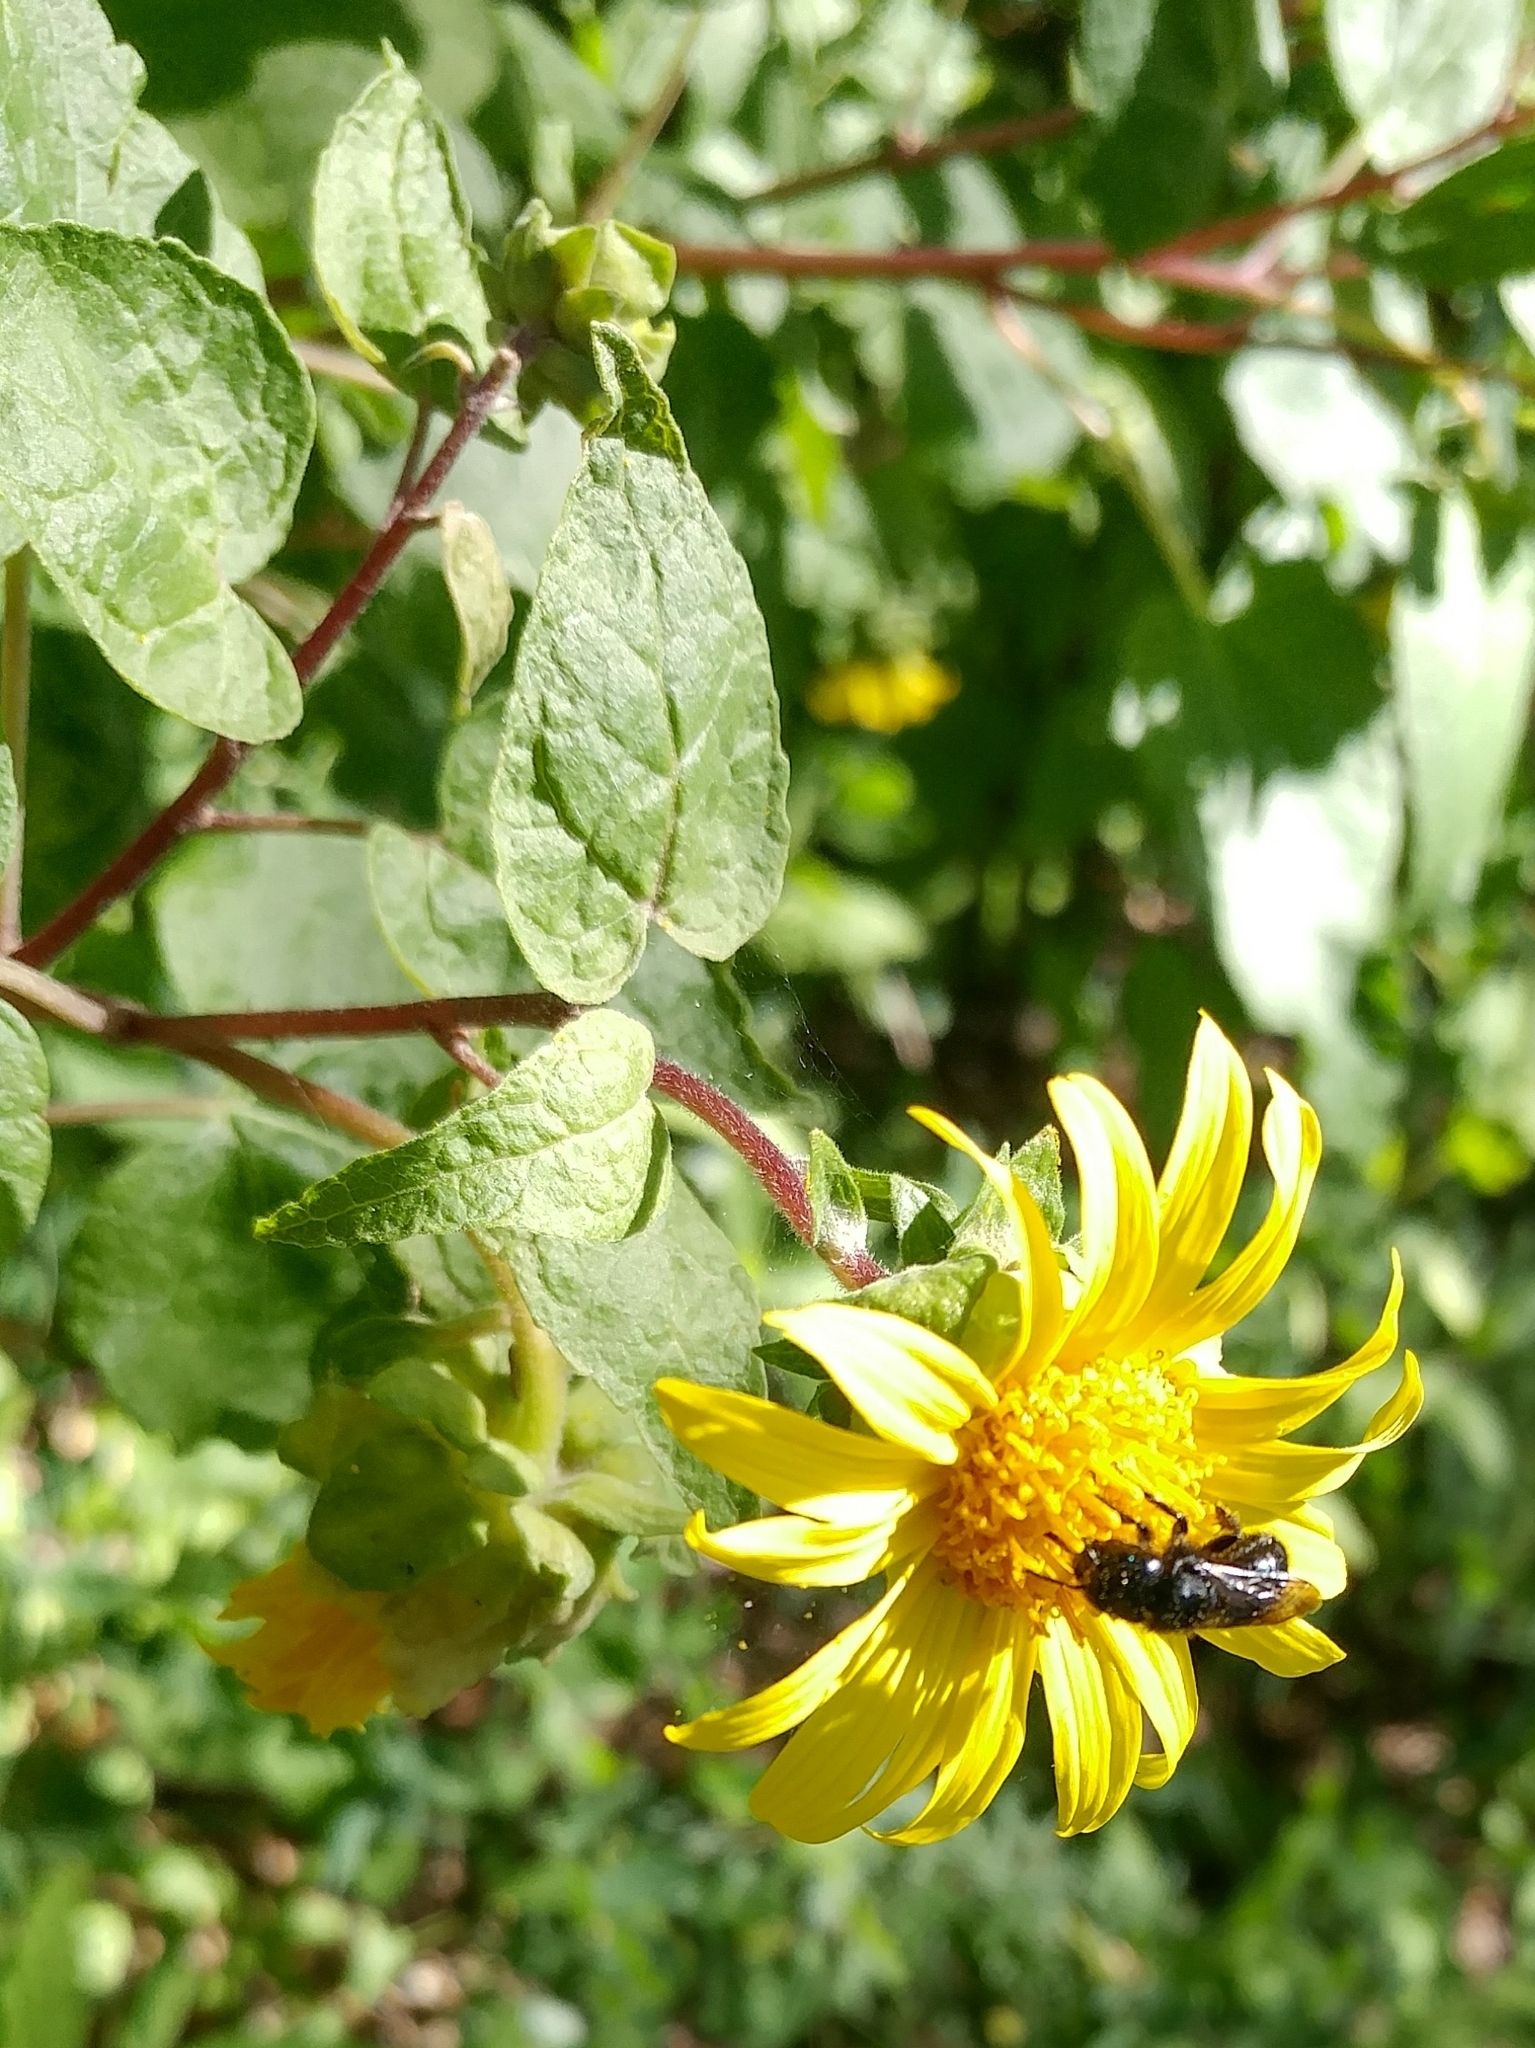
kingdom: Plantae
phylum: Tracheophyta
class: Magnoliopsida
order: Asterales
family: Asteraceae
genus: Venegasia
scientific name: Venegasia carpesioides
